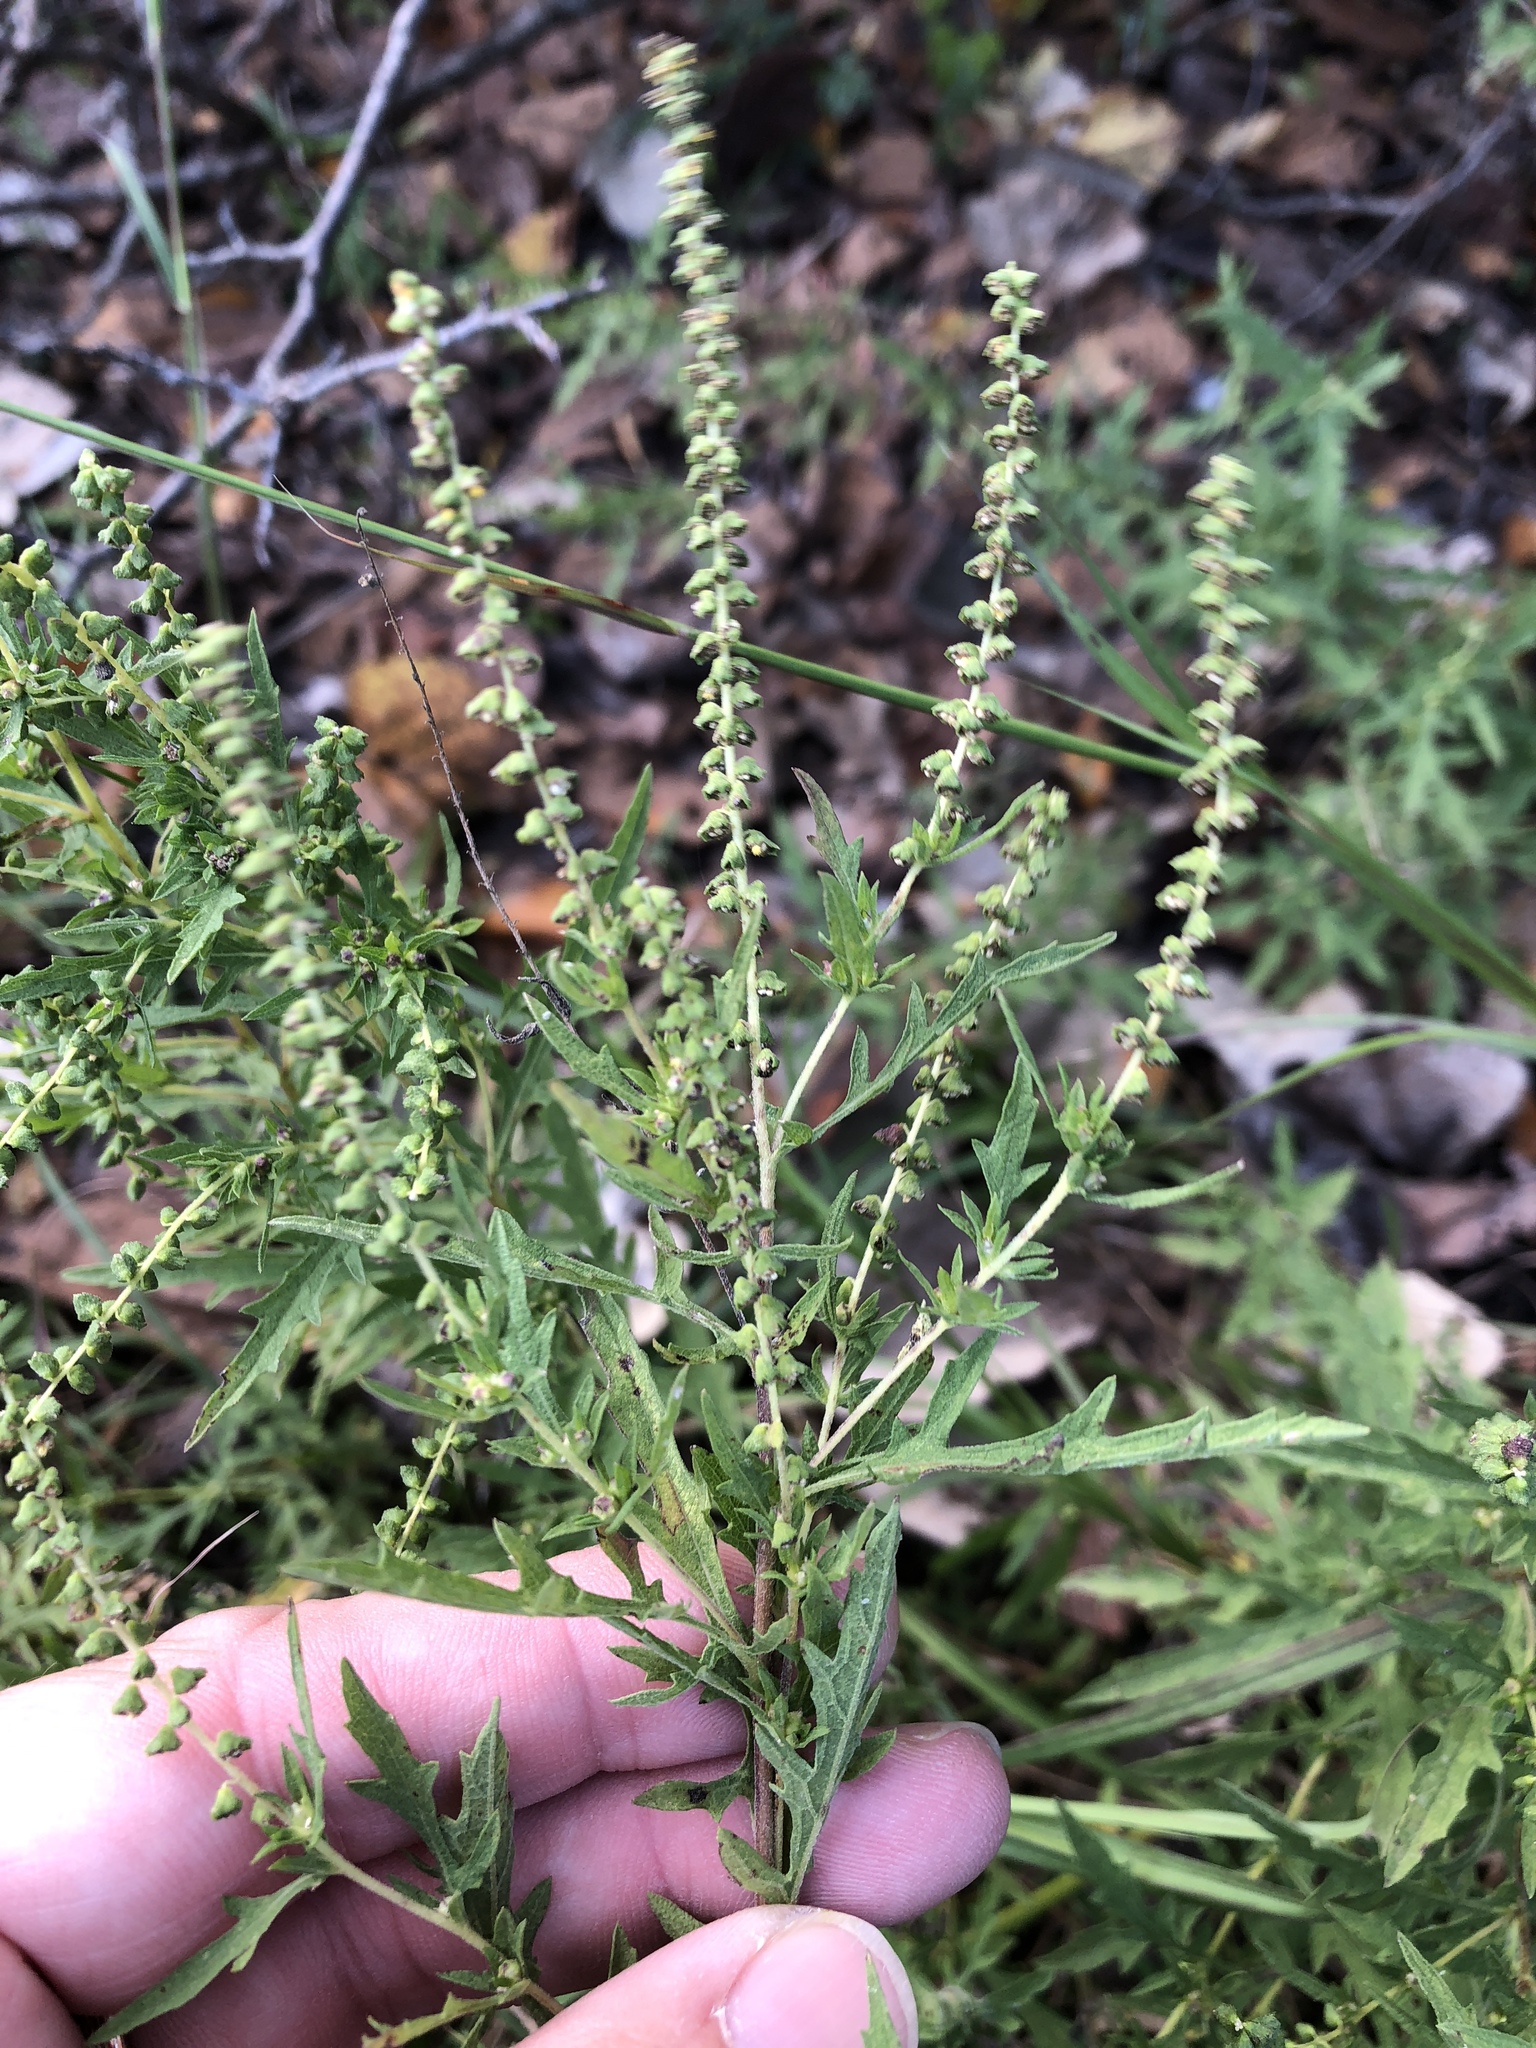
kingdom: Plantae
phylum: Tracheophyta
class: Magnoliopsida
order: Asterales
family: Asteraceae
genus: Ambrosia
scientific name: Ambrosia psilostachya
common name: Perennial ragweed
